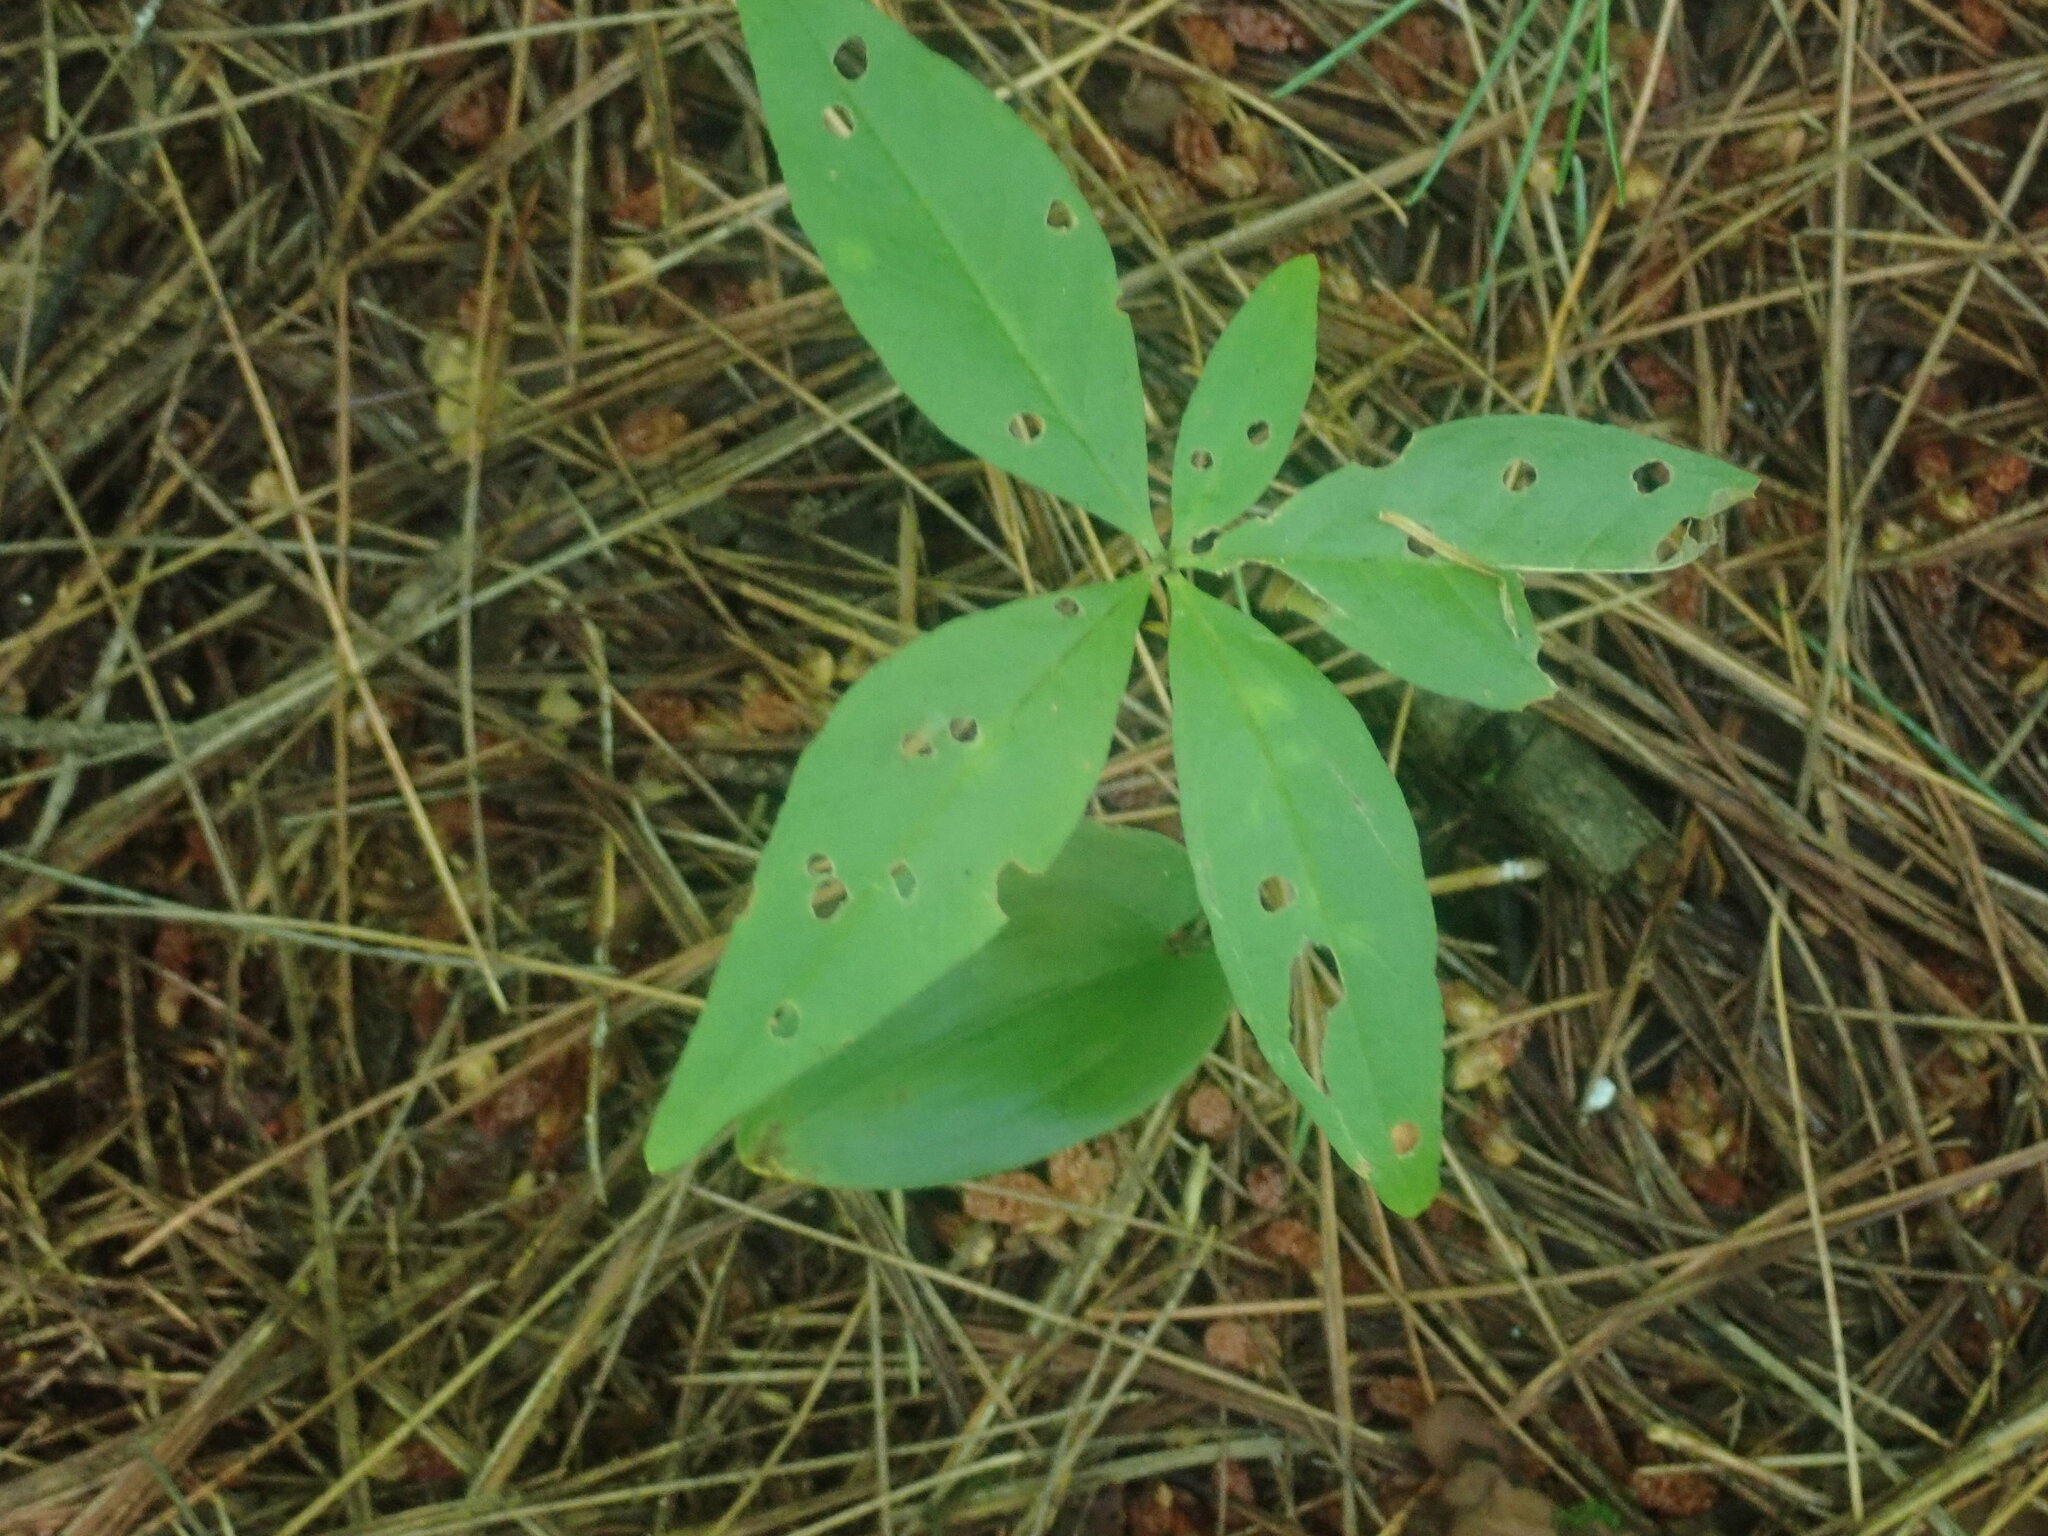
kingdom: Plantae
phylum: Tracheophyta
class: Magnoliopsida
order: Ericales
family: Primulaceae
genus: Lysimachia
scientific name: Lysimachia borealis
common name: American starflower
